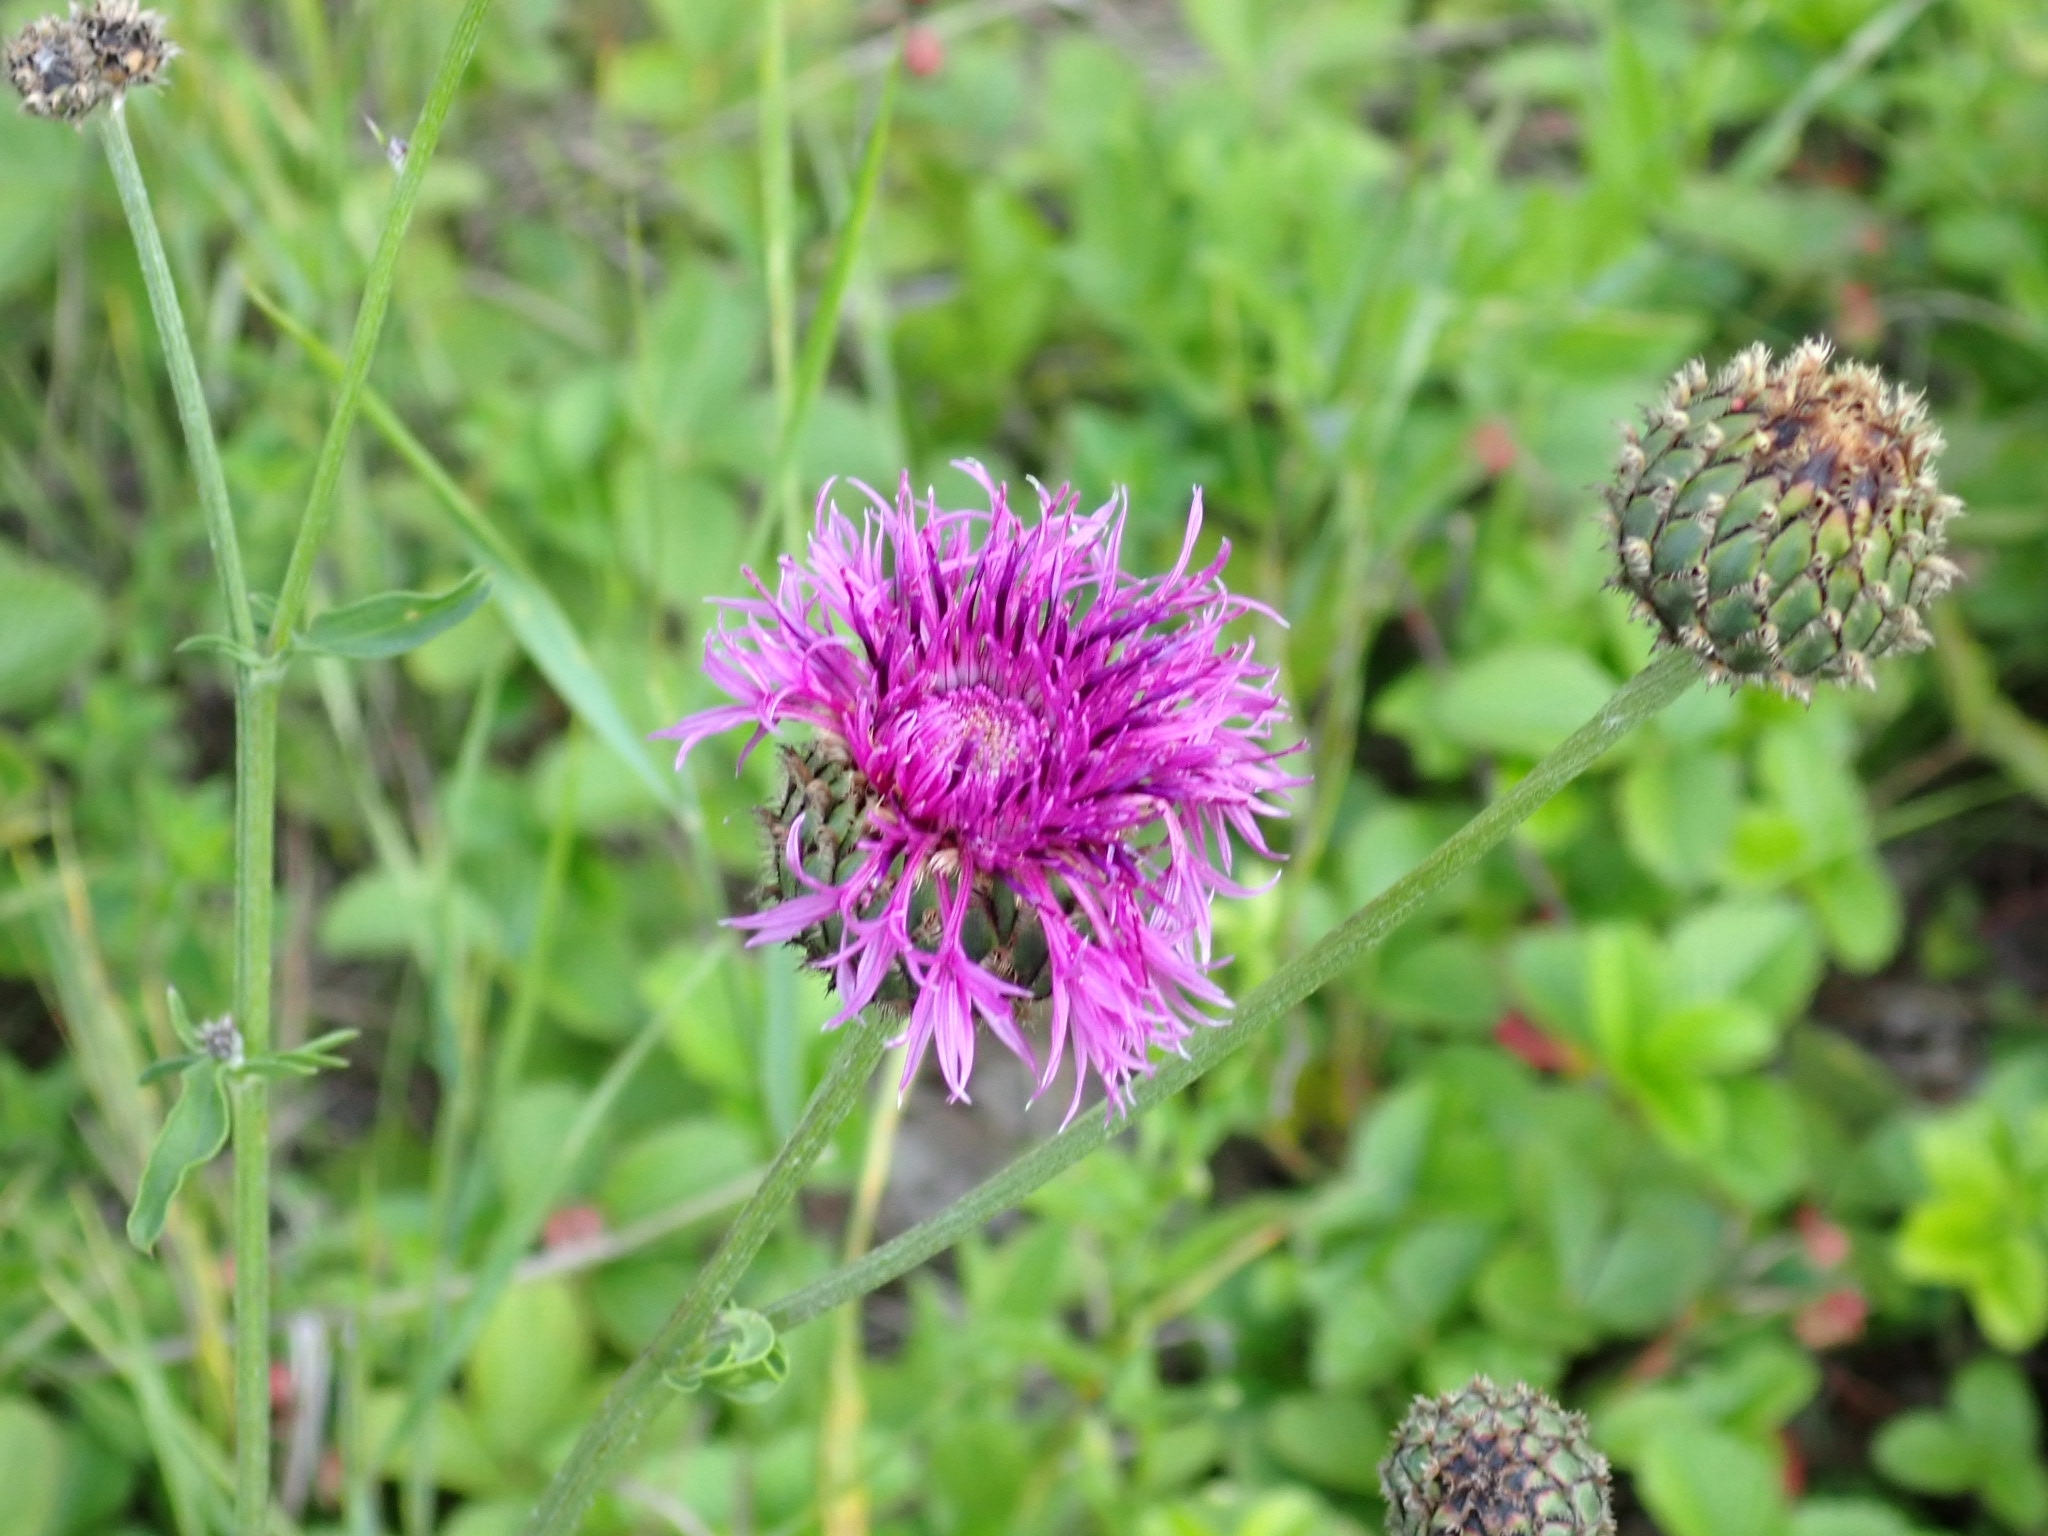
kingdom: Plantae
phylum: Tracheophyta
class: Magnoliopsida
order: Asterales
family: Asteraceae
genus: Centaurea
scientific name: Centaurea scabiosa
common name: Greater knapweed
